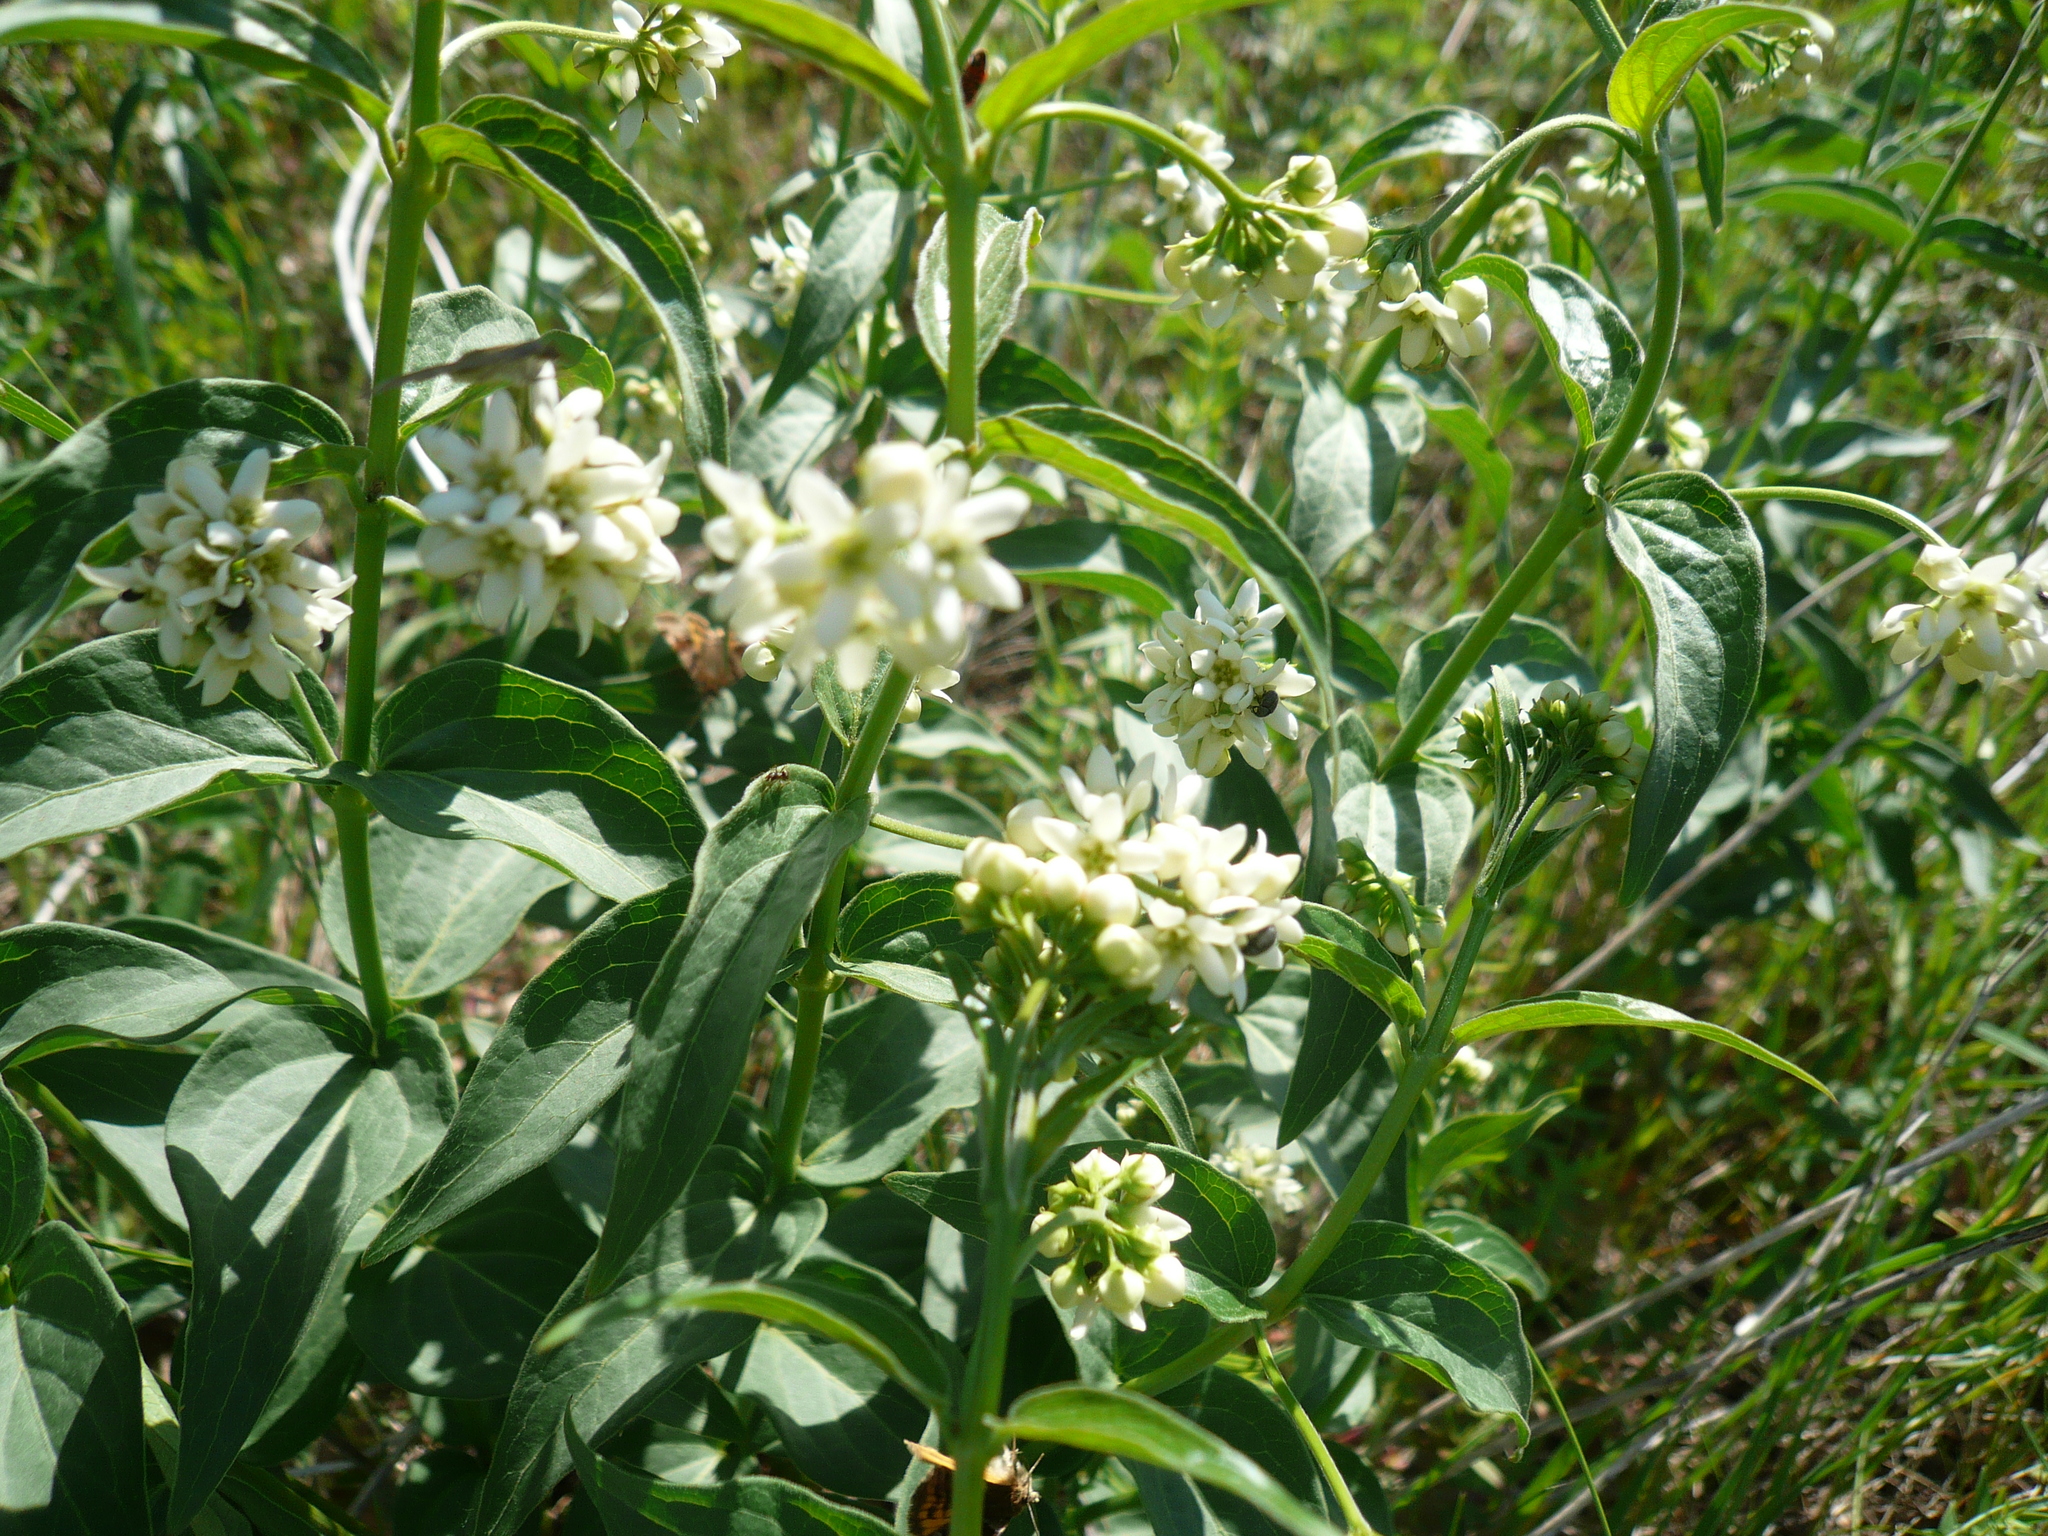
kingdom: Plantae
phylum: Tracheophyta
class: Magnoliopsida
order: Gentianales
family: Apocynaceae
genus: Vincetoxicum
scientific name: Vincetoxicum hirundinaria
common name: White swallowwort
